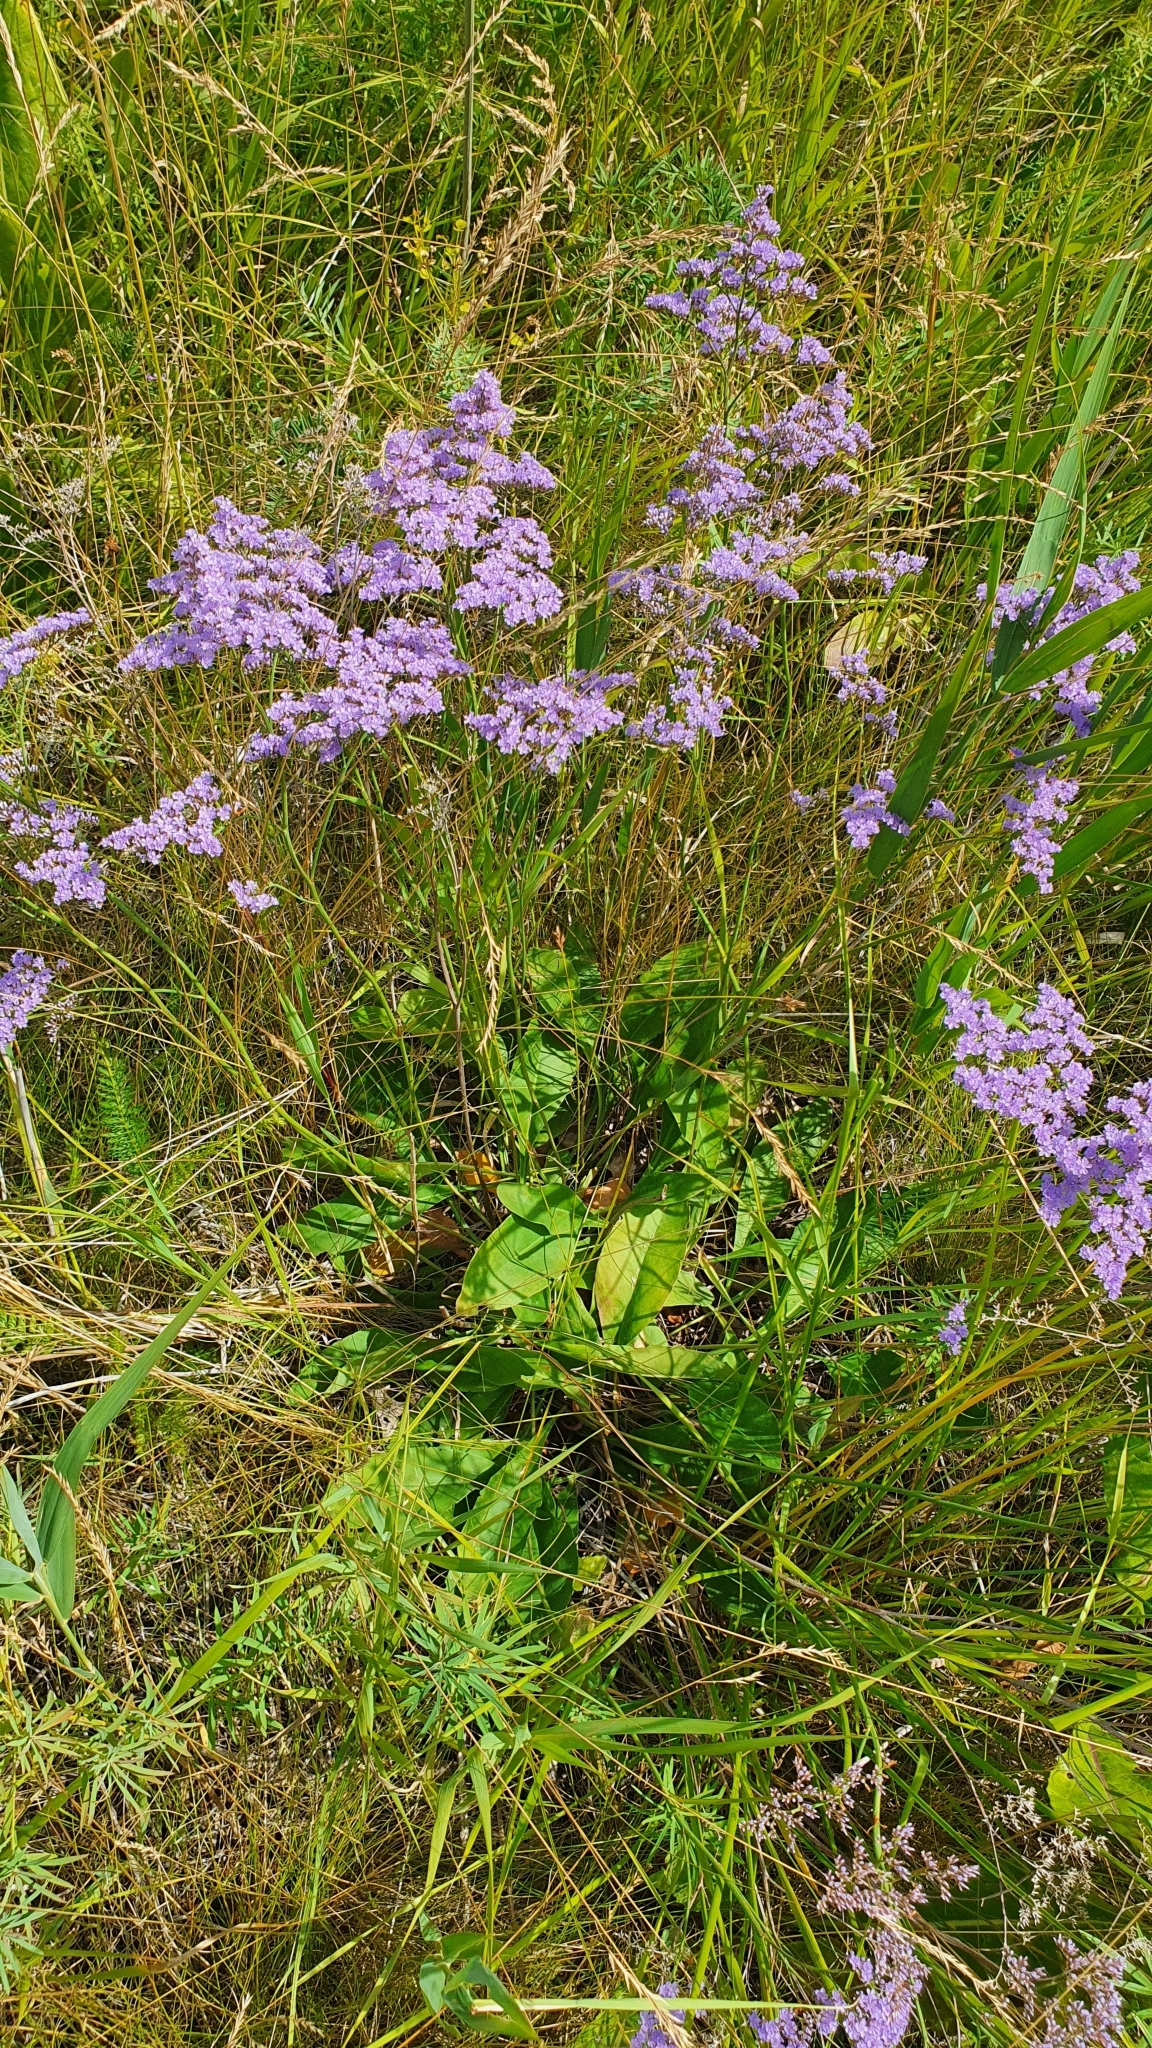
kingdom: Plantae
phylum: Tracheophyta
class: Magnoliopsida
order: Caryophyllales
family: Plumbaginaceae
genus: Limonium
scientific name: Limonium gmelini
